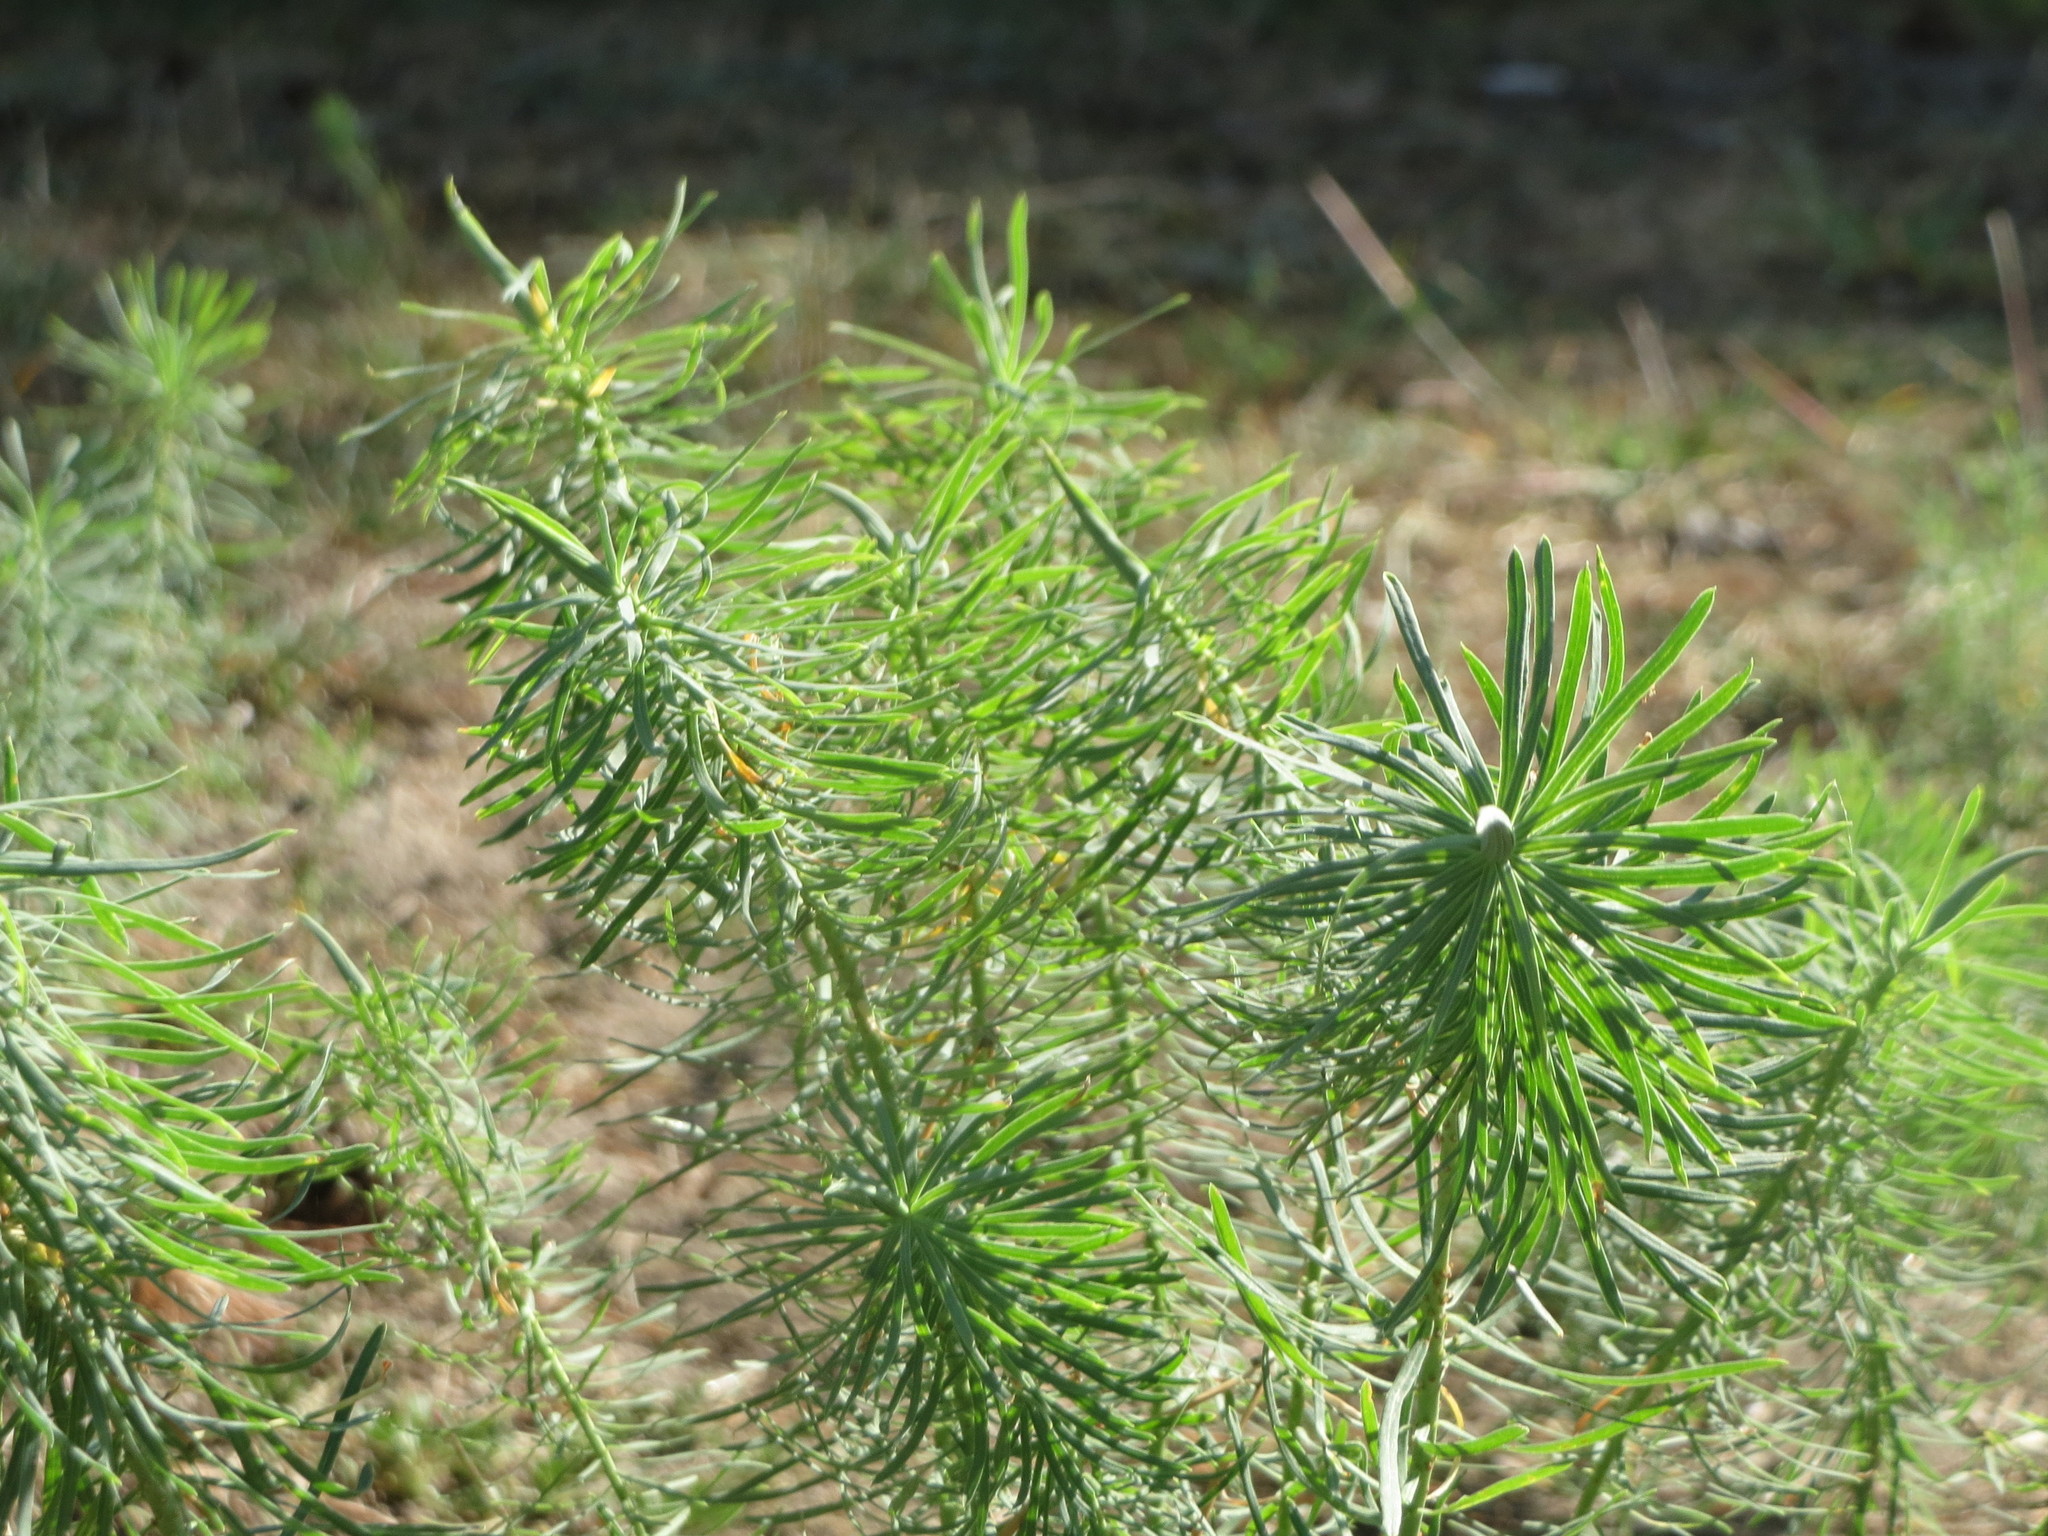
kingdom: Plantae
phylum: Tracheophyta
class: Magnoliopsida
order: Malpighiales
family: Euphorbiaceae
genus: Euphorbia
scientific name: Euphorbia cyparissias
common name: Cypress spurge
